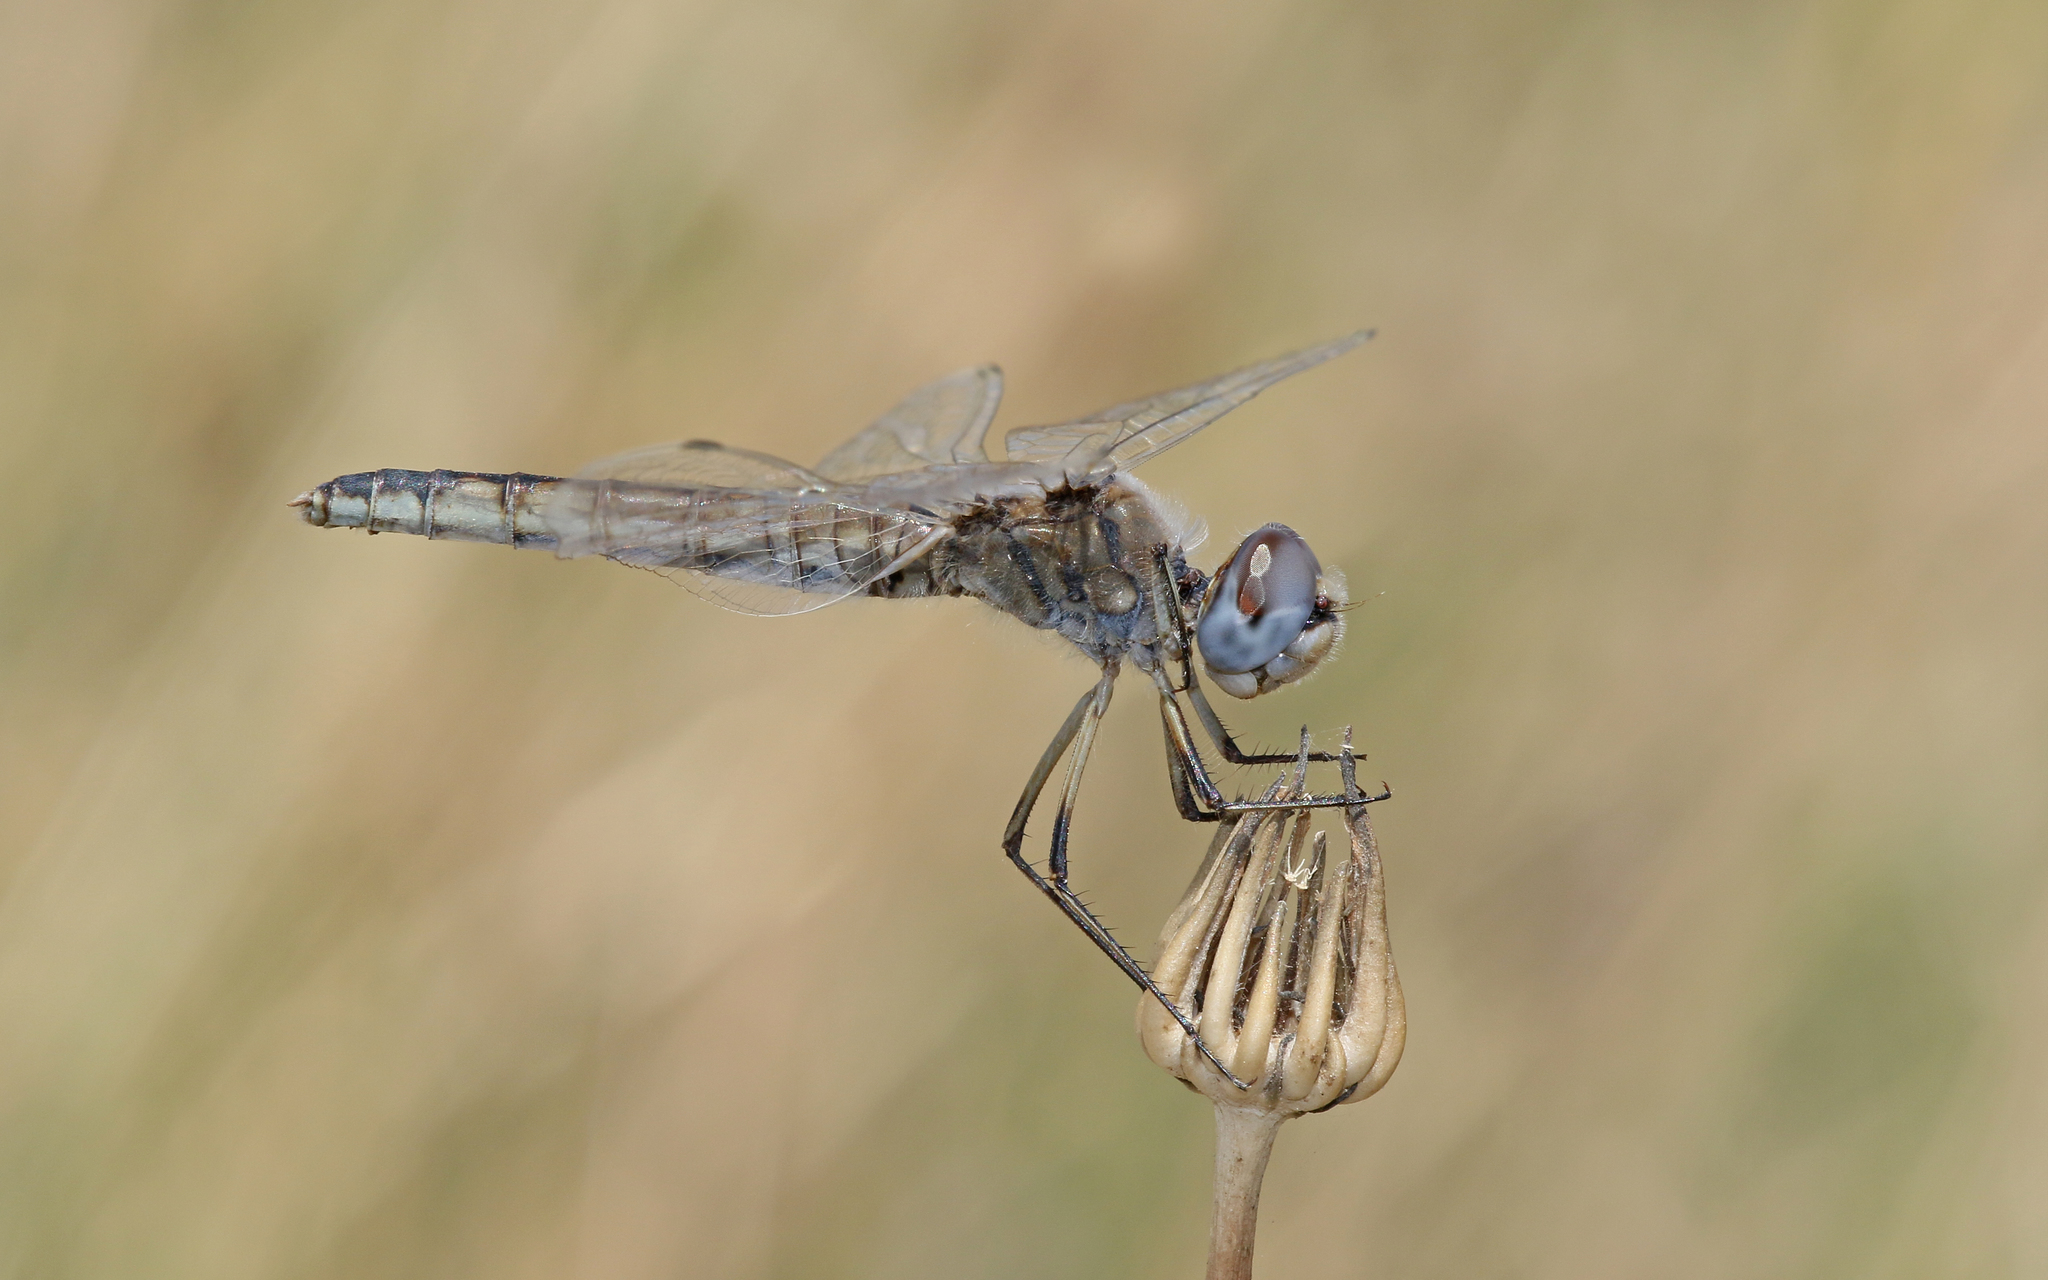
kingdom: Animalia
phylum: Arthropoda
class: Insecta
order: Odonata
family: Libellulidae
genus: Selysiothemis
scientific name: Selysiothemis nigra
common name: Black pennant
